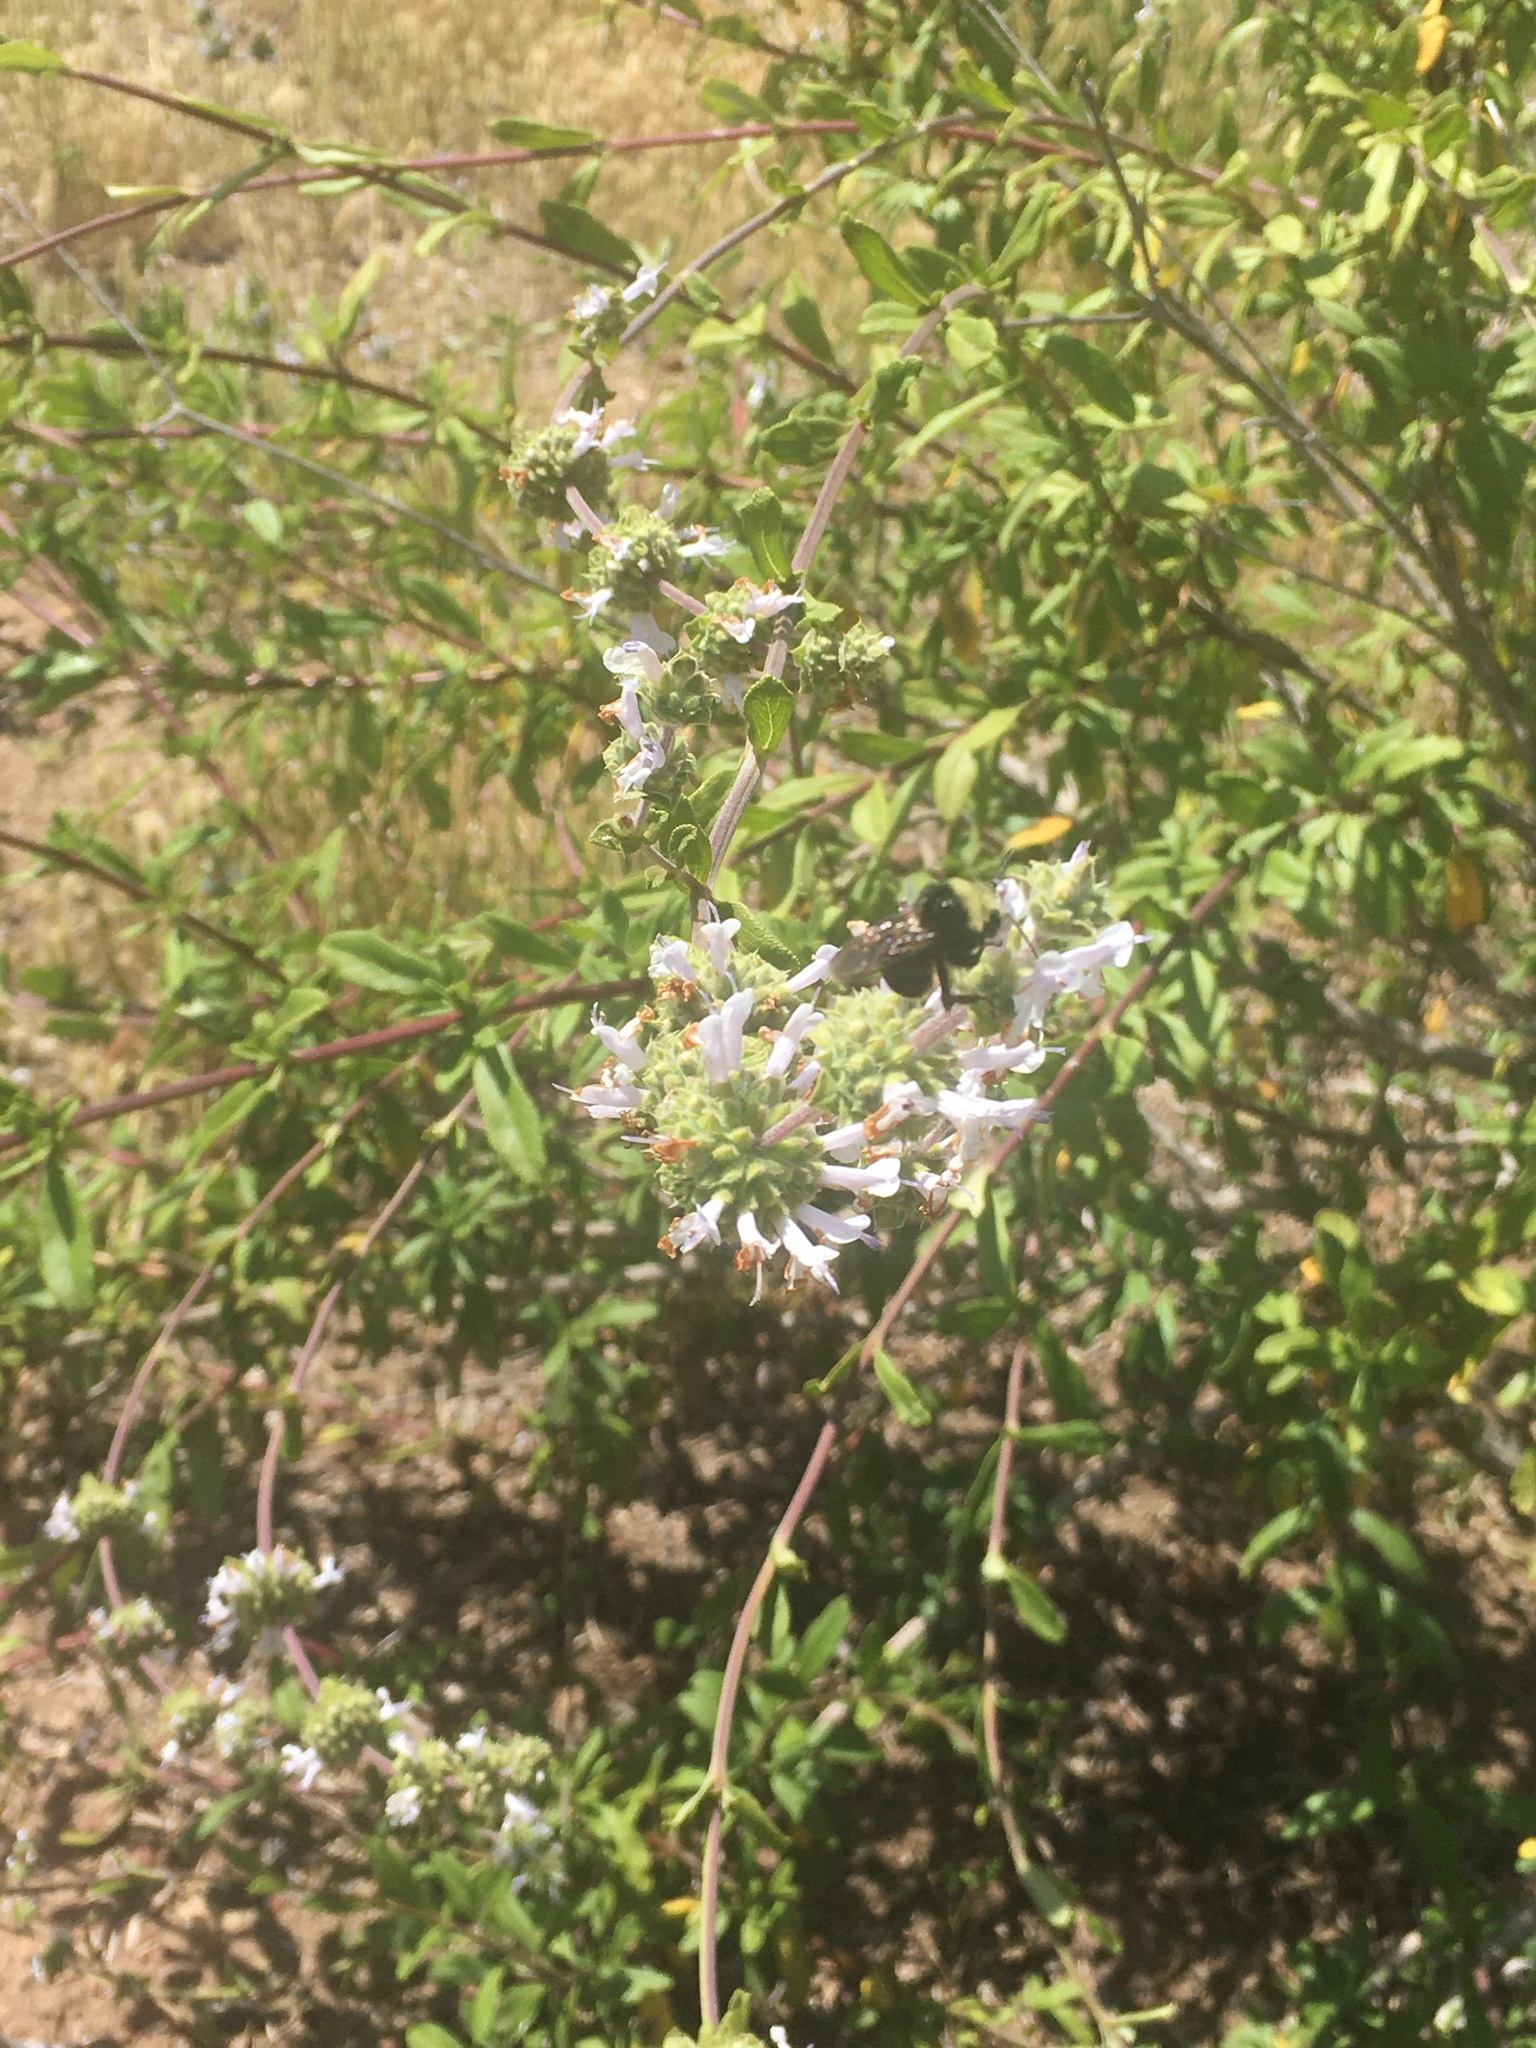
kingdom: Animalia
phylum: Arthropoda
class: Insecta
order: Hymenoptera
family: Apidae
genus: Bombus
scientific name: Bombus vosnesenskii
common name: Vosnesensky bumble bee
